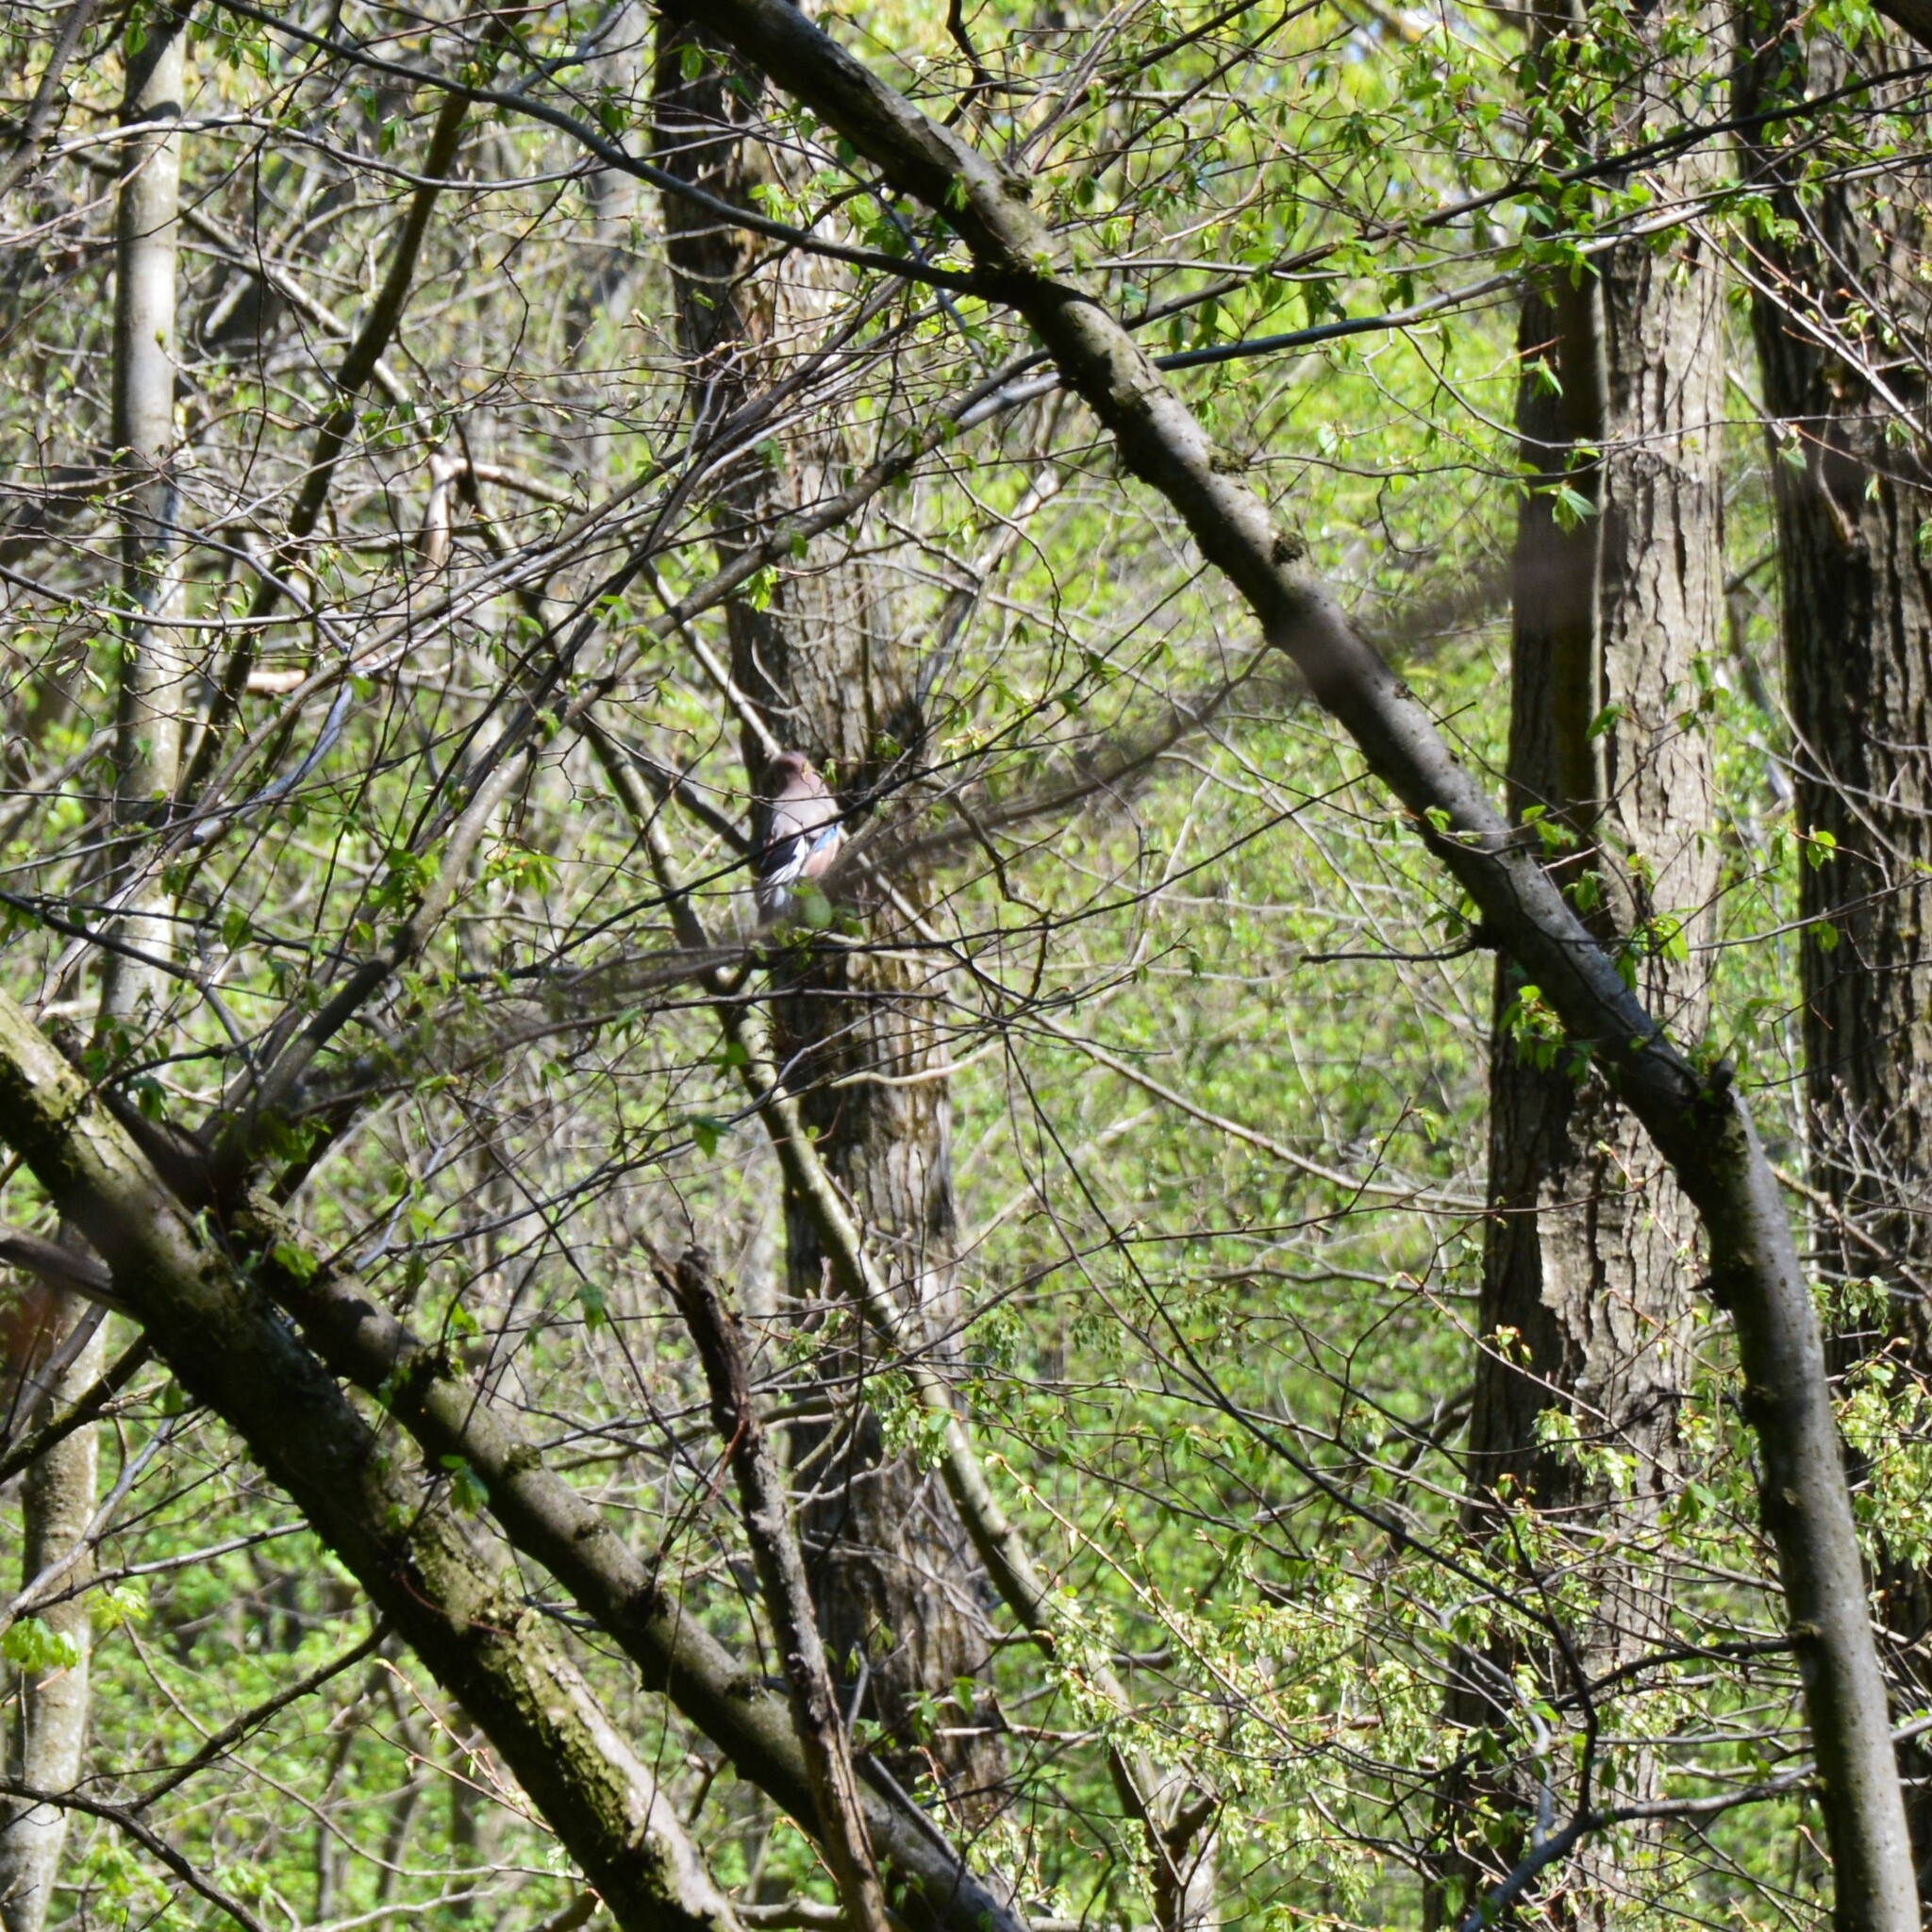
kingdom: Animalia
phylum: Chordata
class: Aves
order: Passeriformes
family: Corvidae
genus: Garrulus
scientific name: Garrulus glandarius
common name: Eurasian jay
